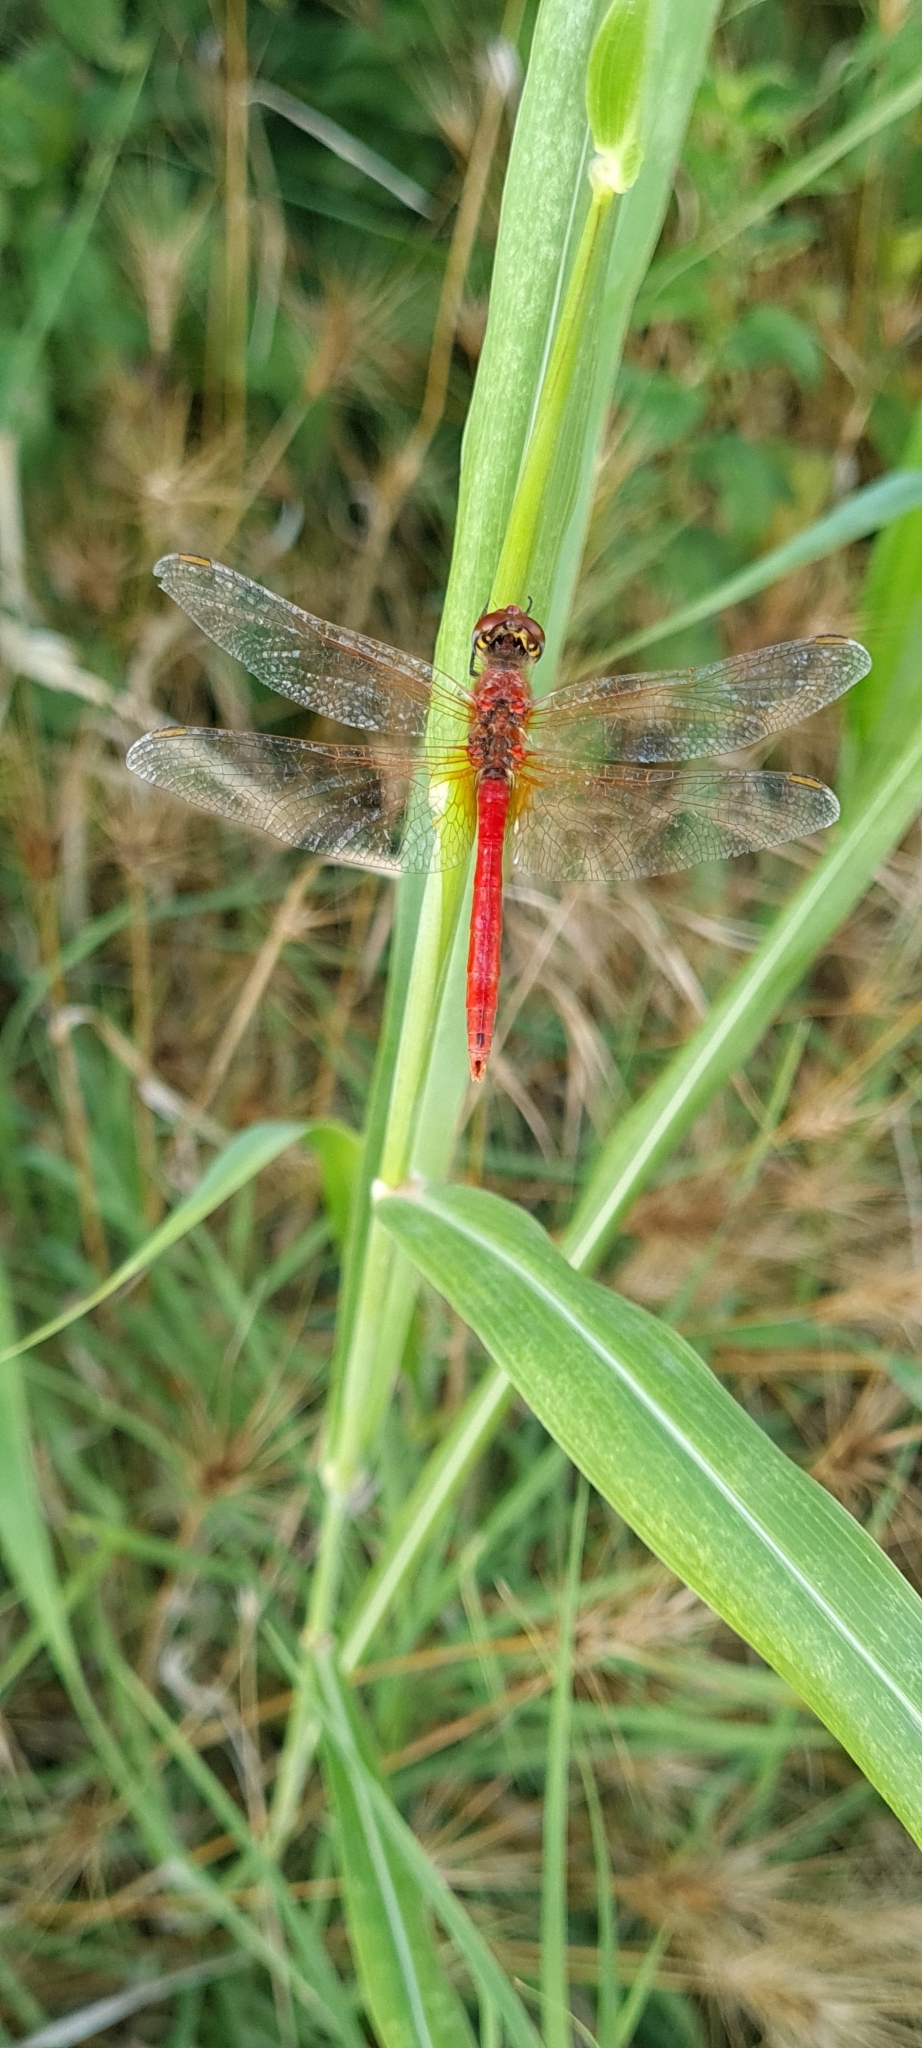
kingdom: Animalia
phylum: Arthropoda
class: Insecta
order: Odonata
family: Libellulidae
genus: Sympetrum
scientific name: Sympetrum fonscolombii
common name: Red-veined darter
